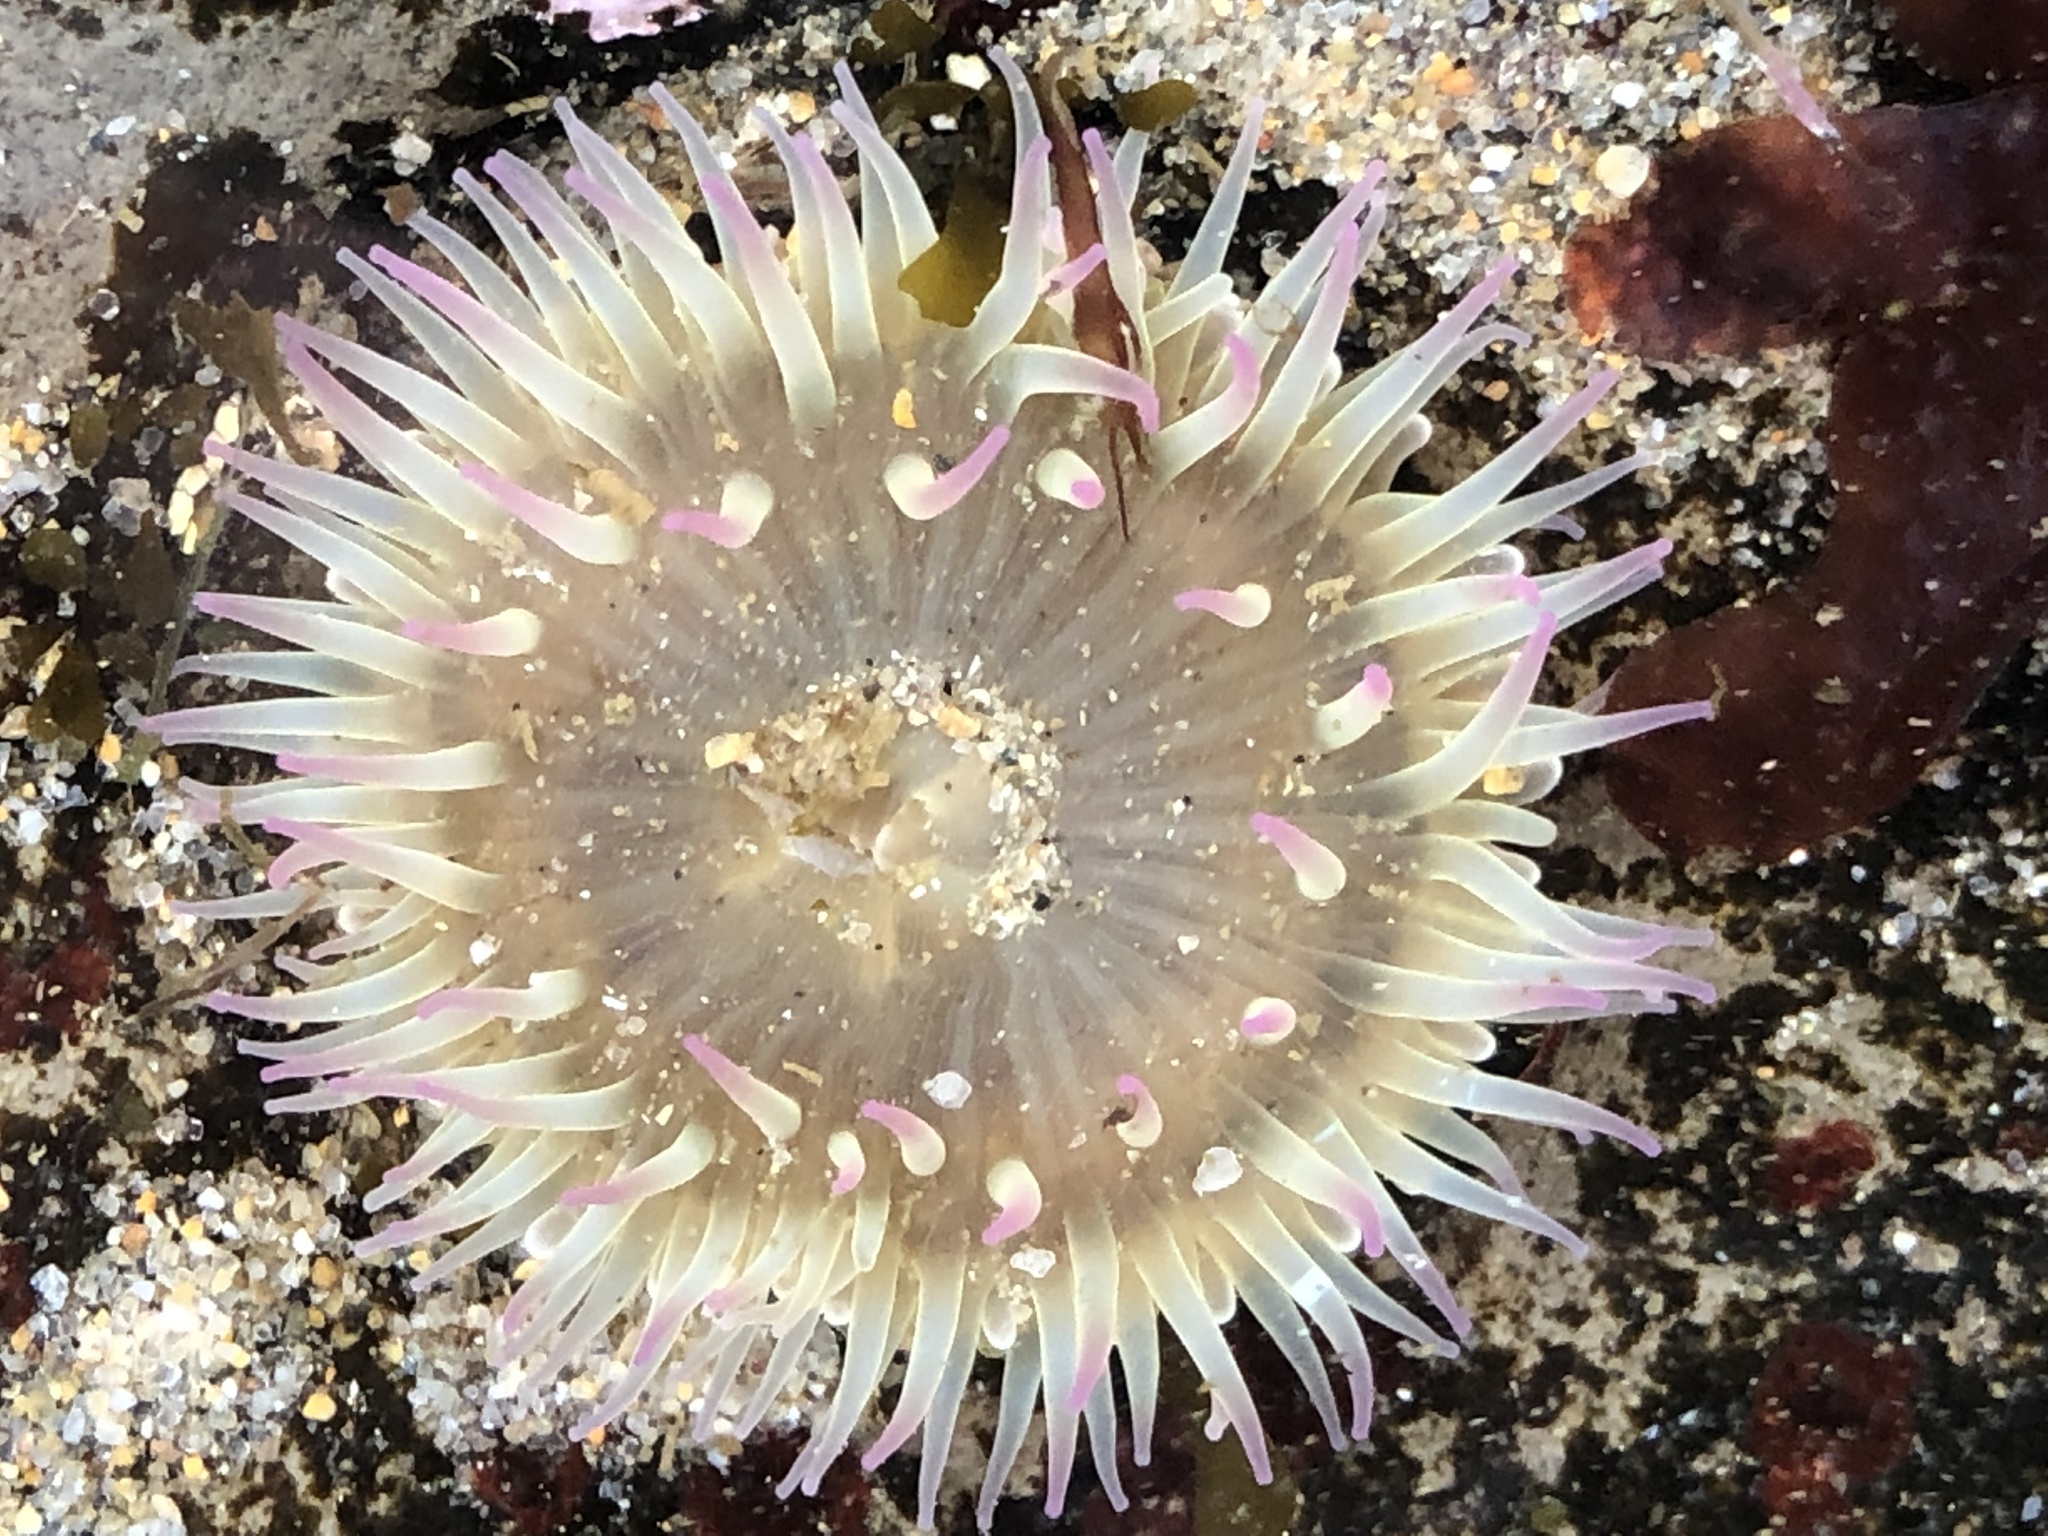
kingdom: Animalia
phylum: Cnidaria
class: Anthozoa
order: Actiniaria
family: Actiniidae
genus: Anthopleura
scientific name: Anthopleura elegantissima
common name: Clonal anemone
